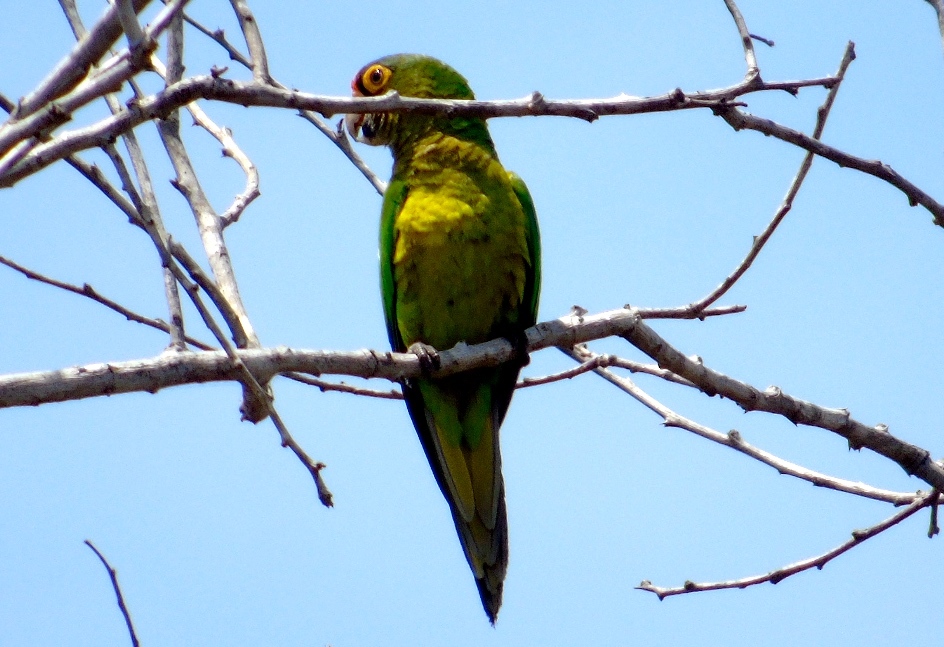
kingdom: Animalia
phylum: Chordata
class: Aves
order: Psittaciformes
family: Psittacidae
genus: Aratinga
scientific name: Aratinga canicularis
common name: Orange-fronted parakeet
